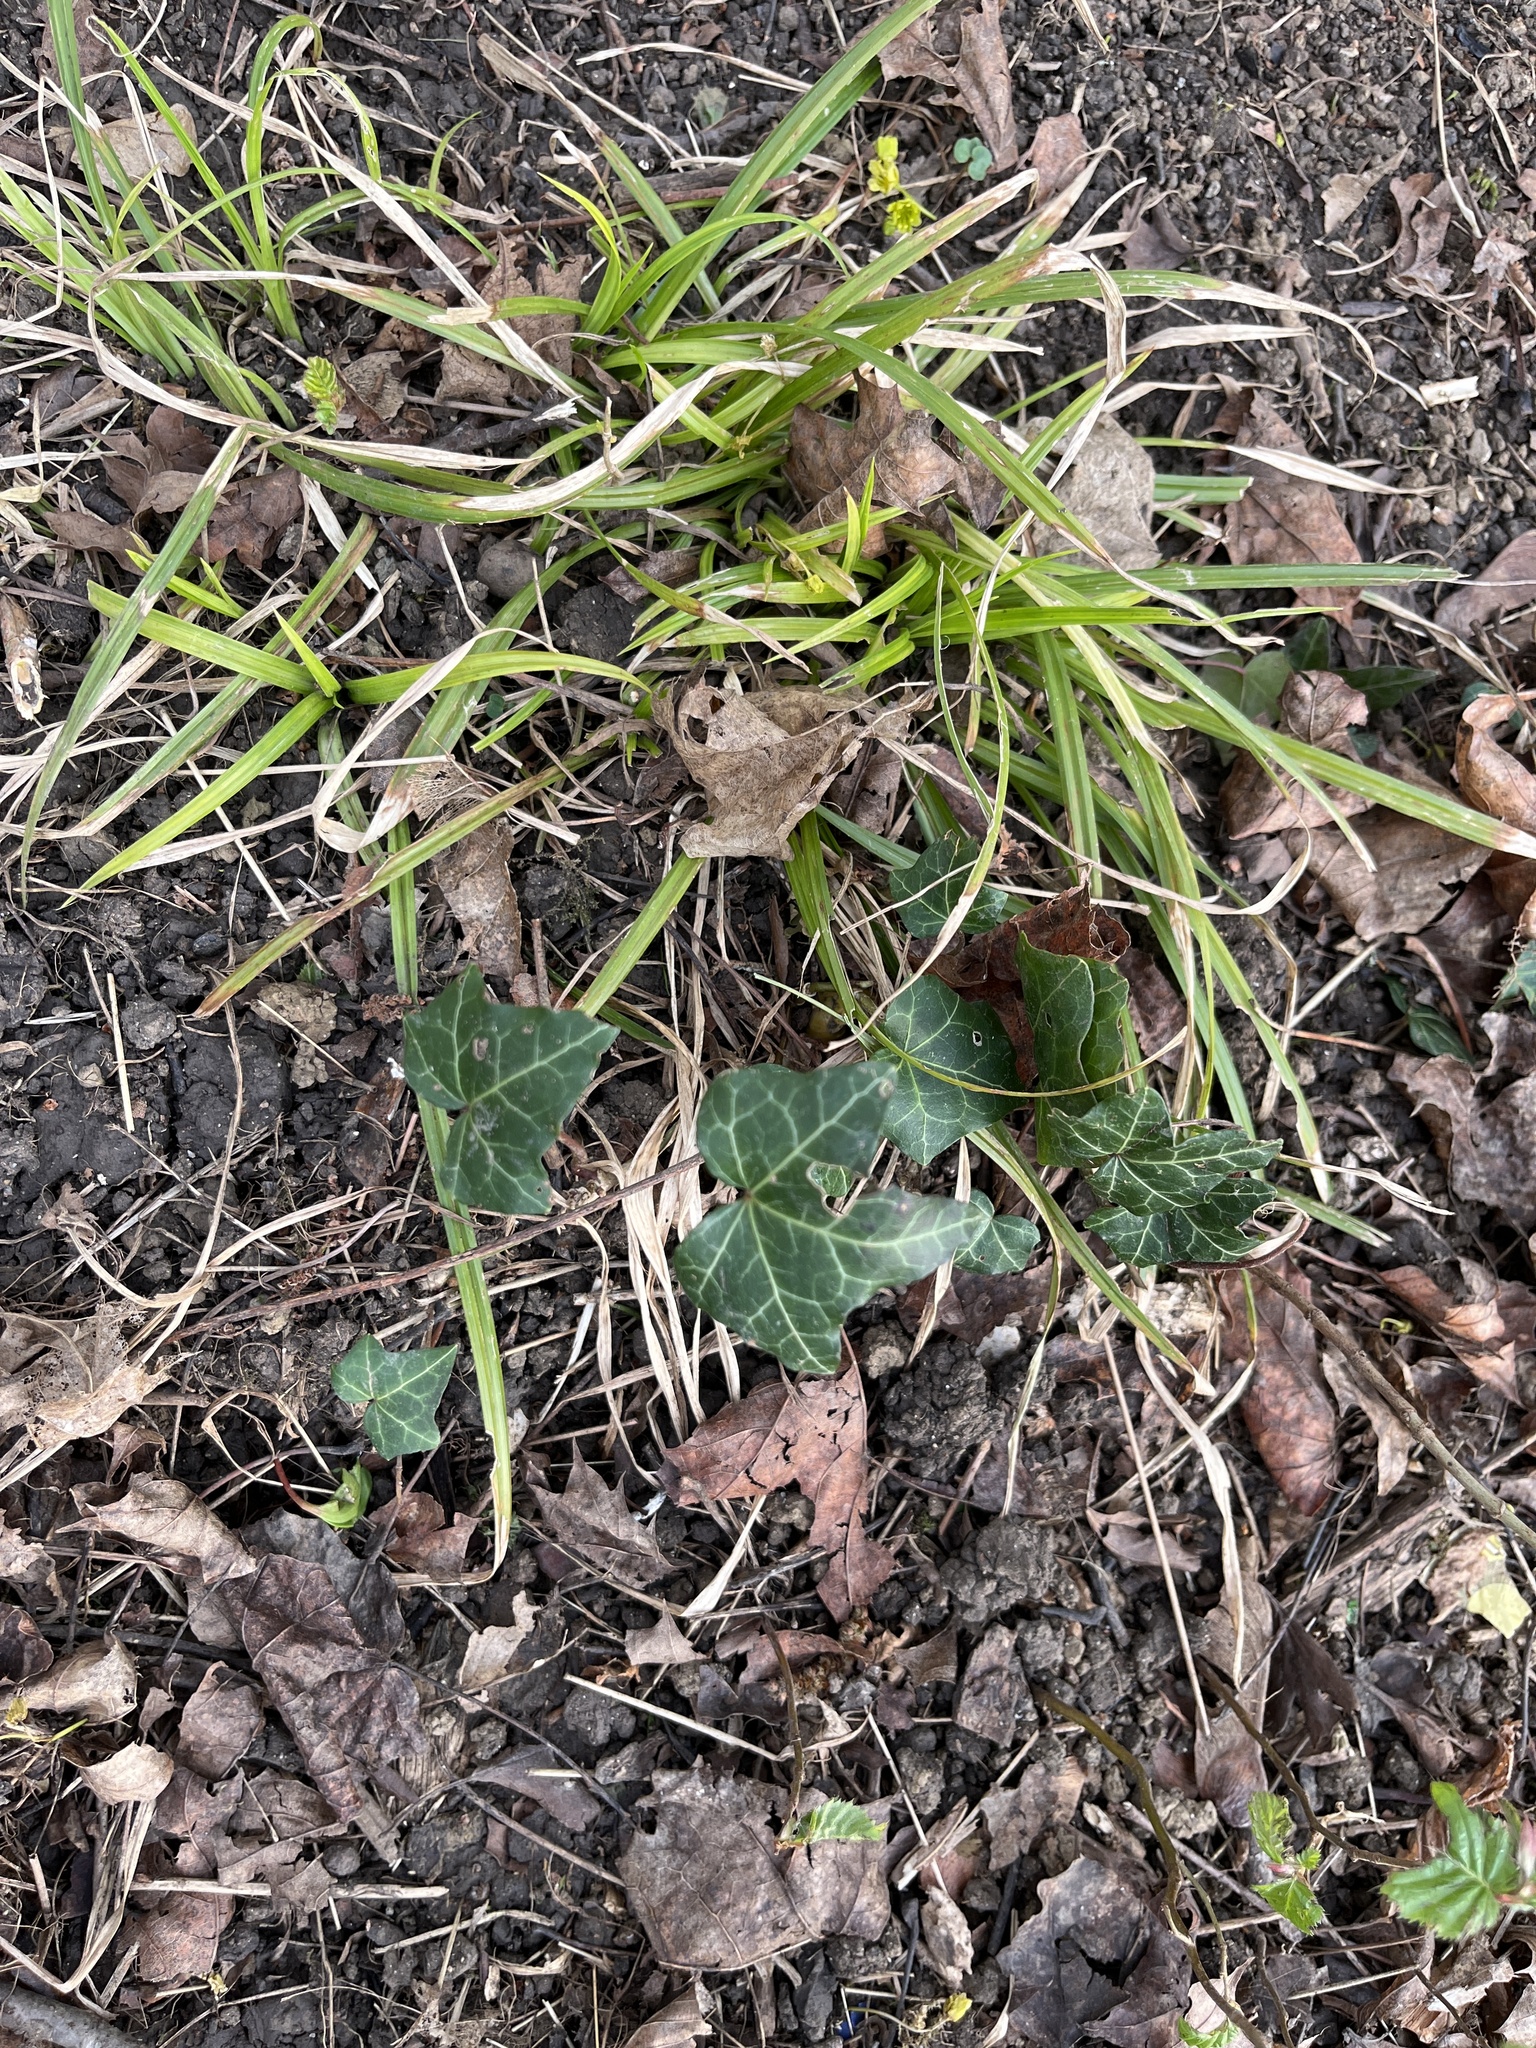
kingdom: Plantae
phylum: Tracheophyta
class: Magnoliopsida
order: Apiales
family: Araliaceae
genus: Hedera
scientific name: Hedera helix
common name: Ivy
